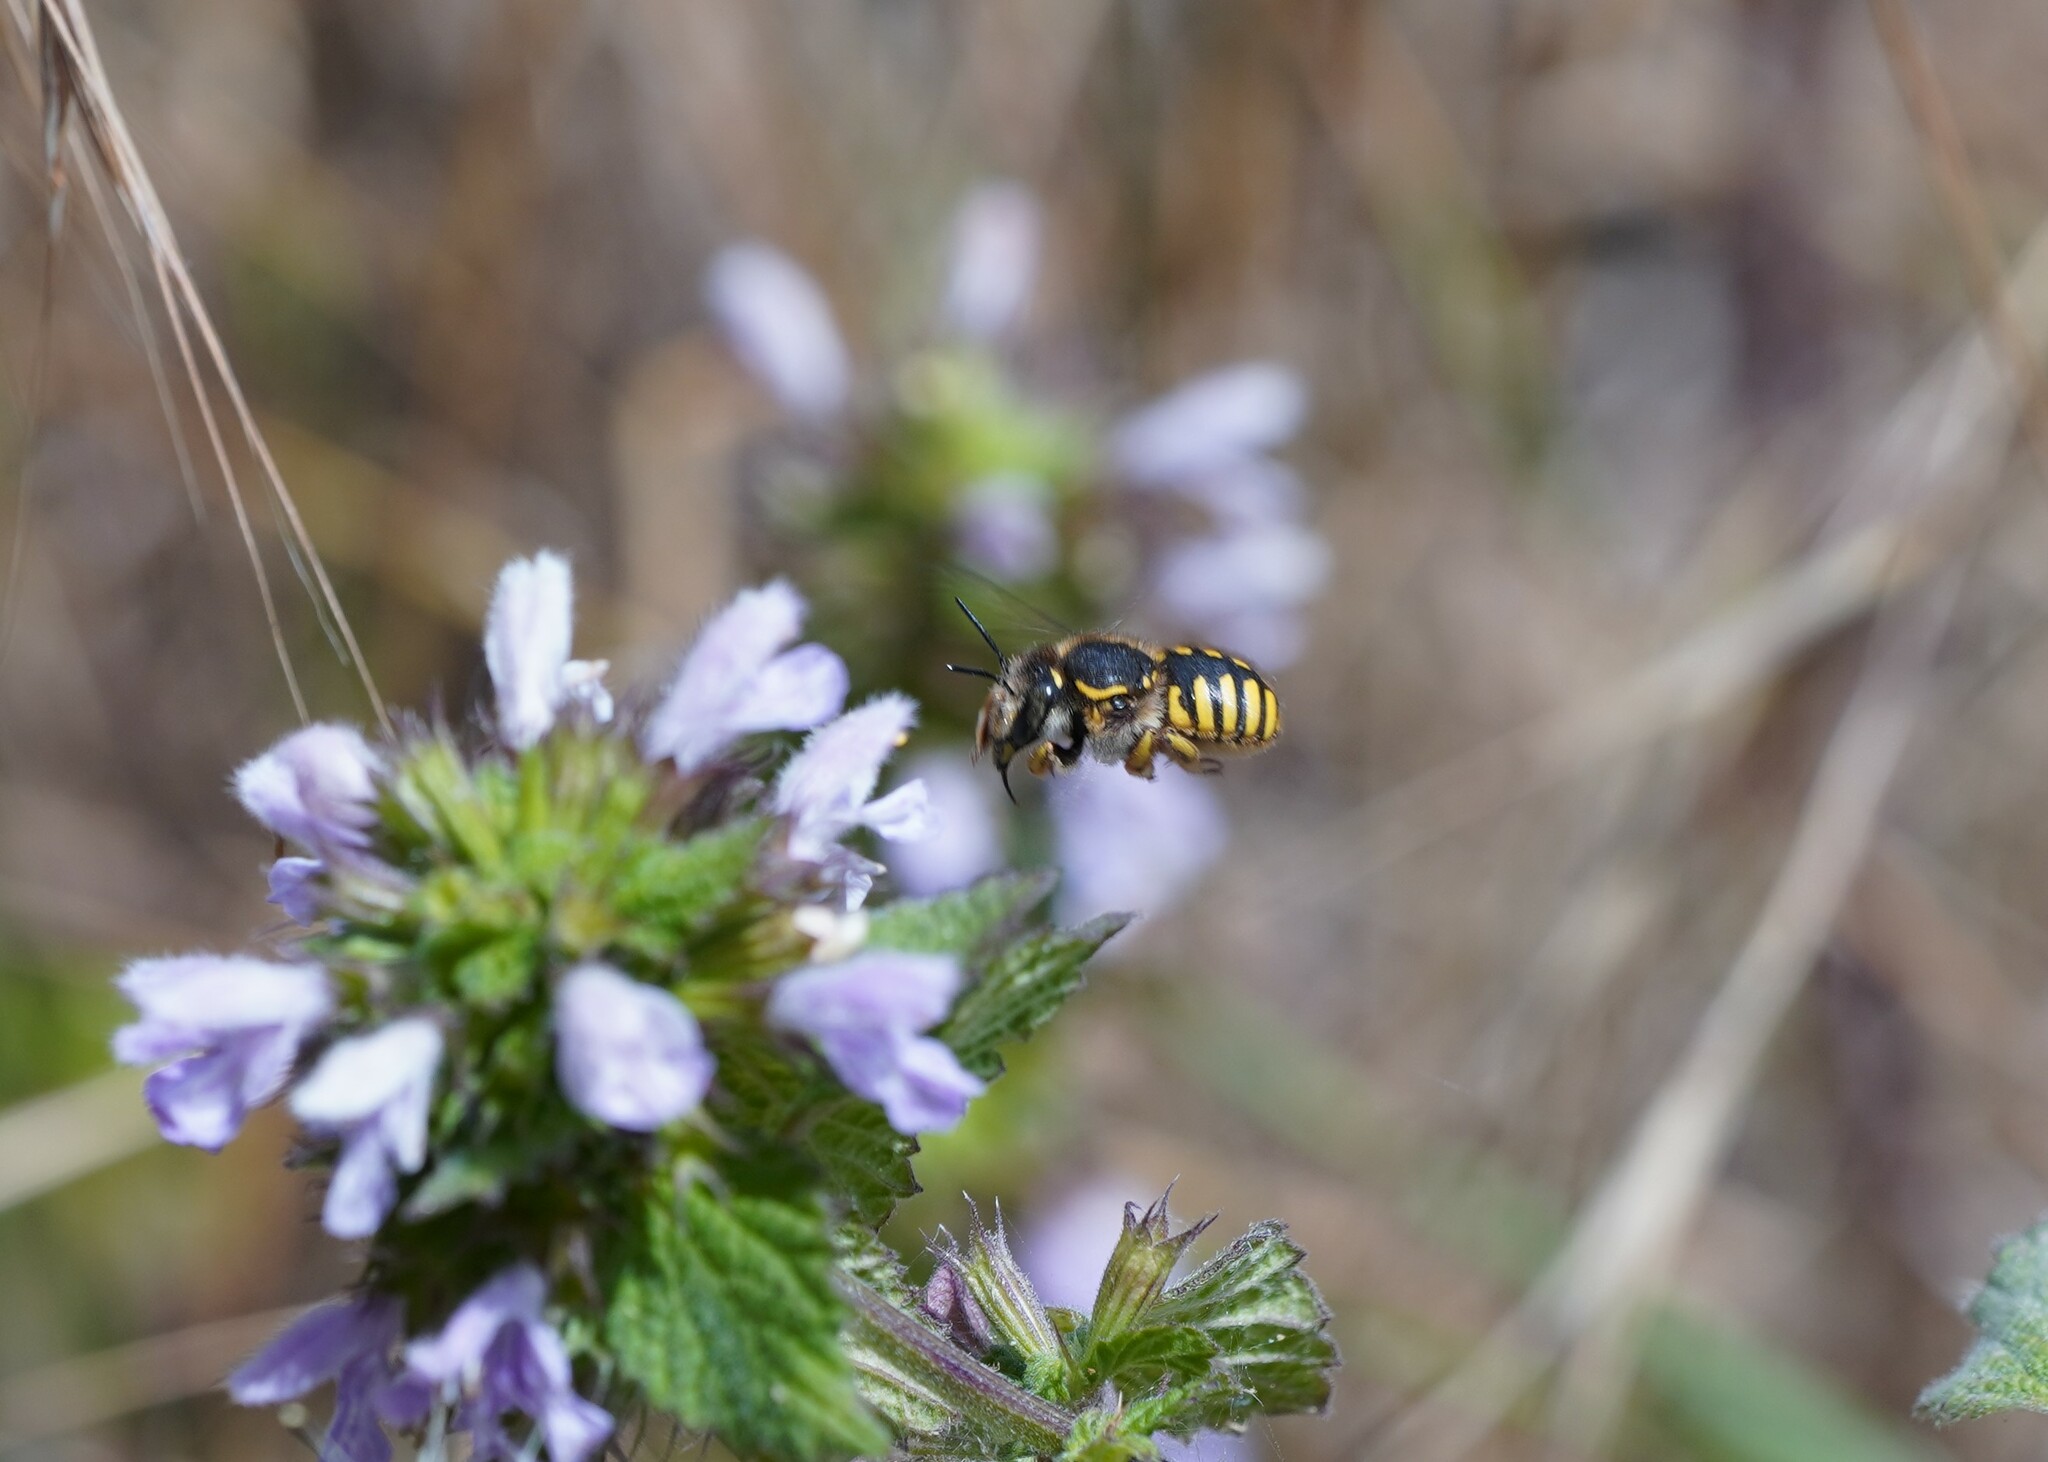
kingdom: Animalia
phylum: Arthropoda
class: Insecta
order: Hymenoptera
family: Megachilidae
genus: Anthidium
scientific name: Anthidium manicatum
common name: Wool carder bee
